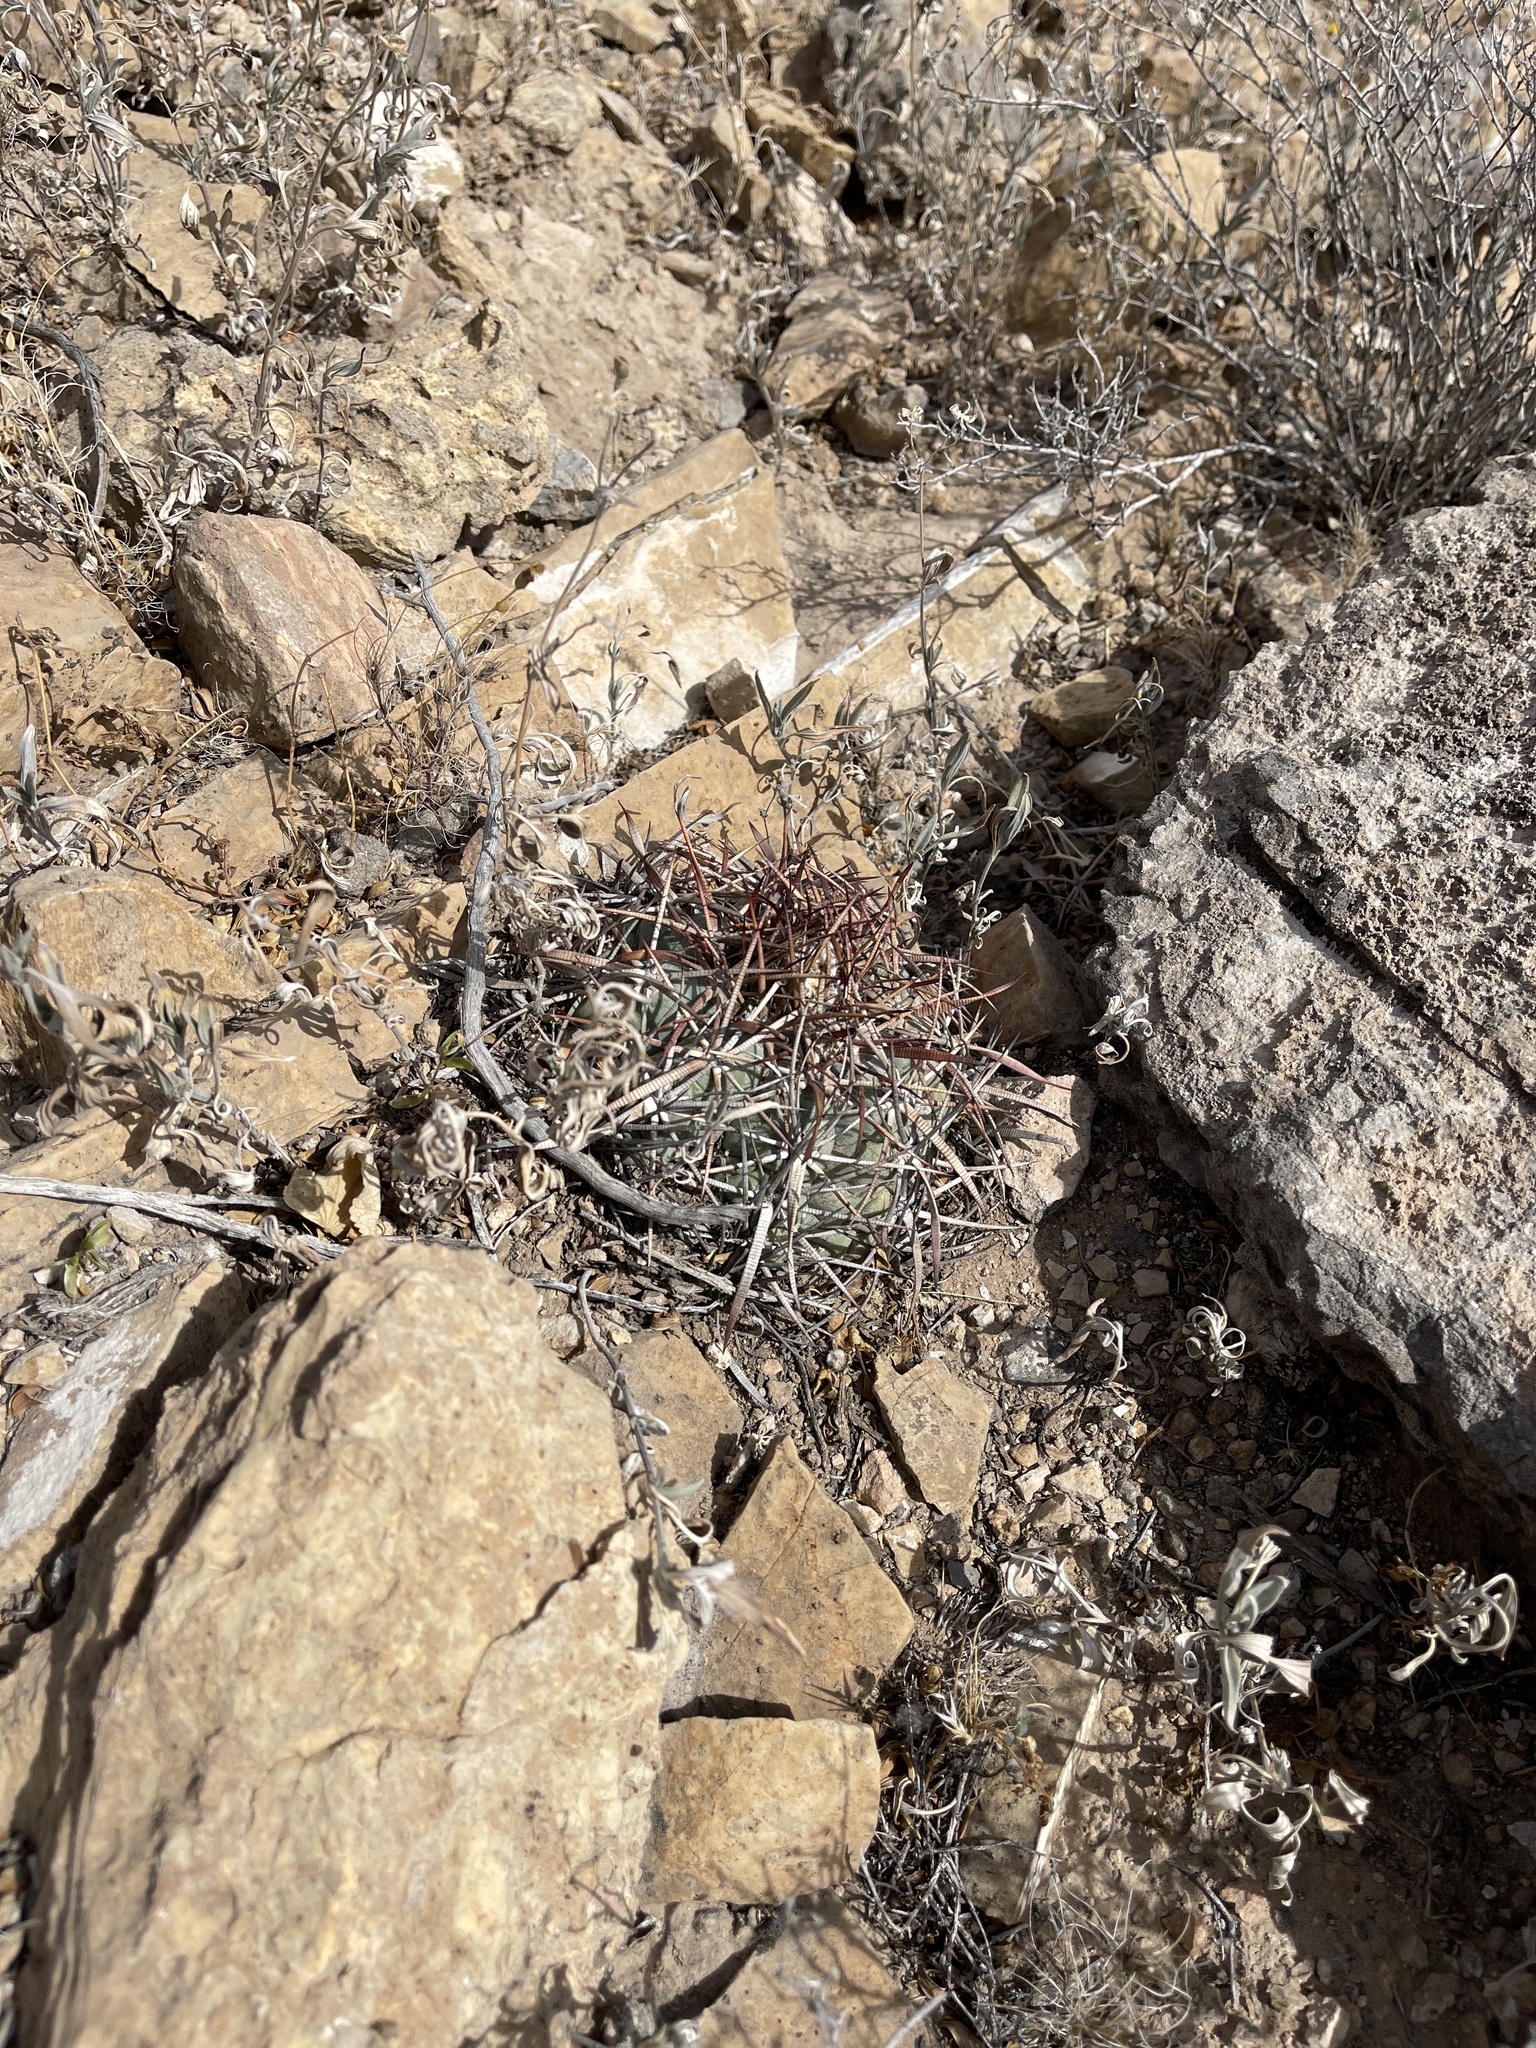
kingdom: Plantae
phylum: Tracheophyta
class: Magnoliopsida
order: Caryophyllales
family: Cactaceae
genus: Echinocactus
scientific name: Echinocactus horizonthalonius
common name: Devilshead
